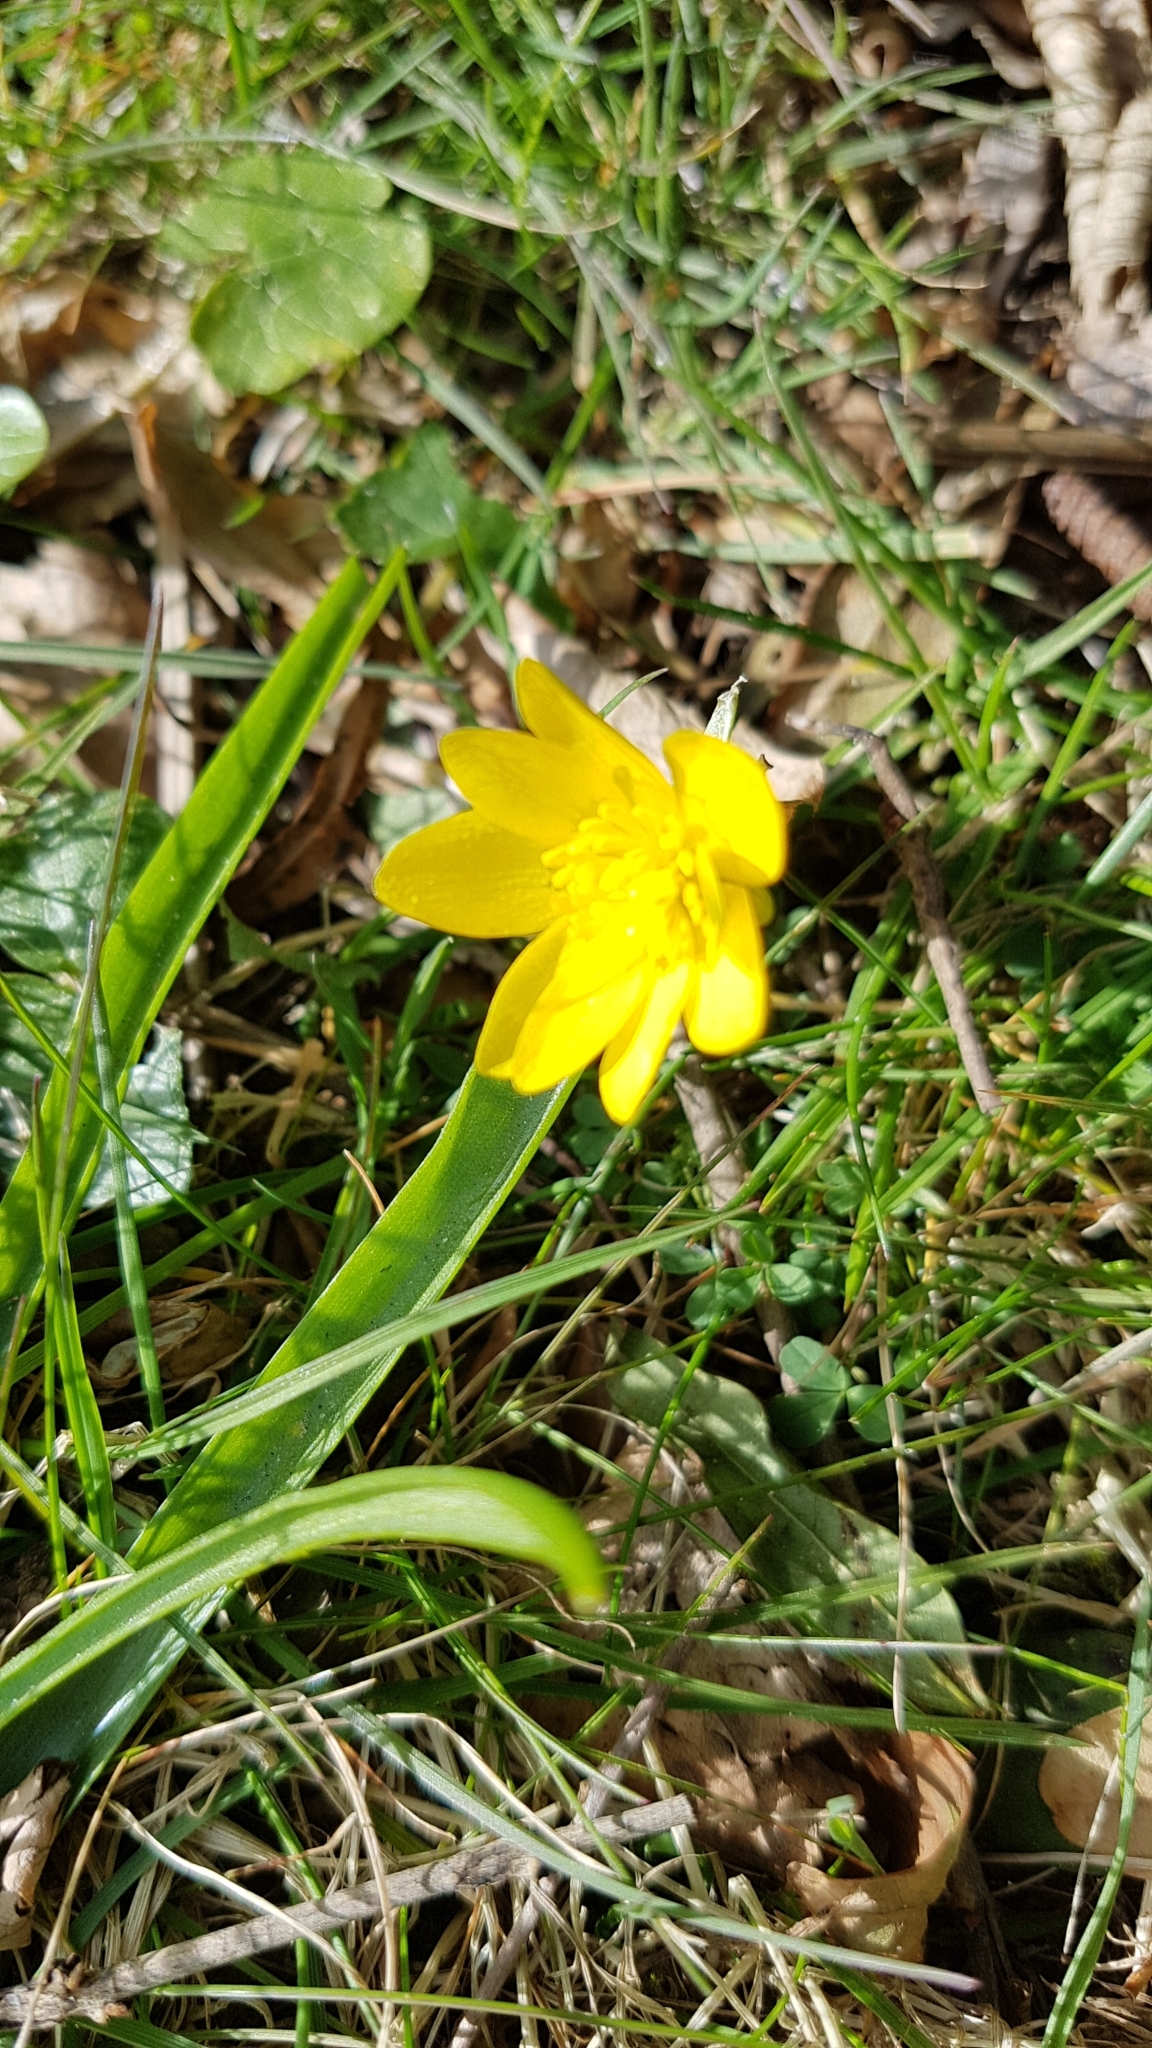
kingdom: Plantae
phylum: Tracheophyta
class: Magnoliopsida
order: Ranunculales
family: Ranunculaceae
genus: Ficaria
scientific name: Ficaria verna
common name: Lesser celandine
